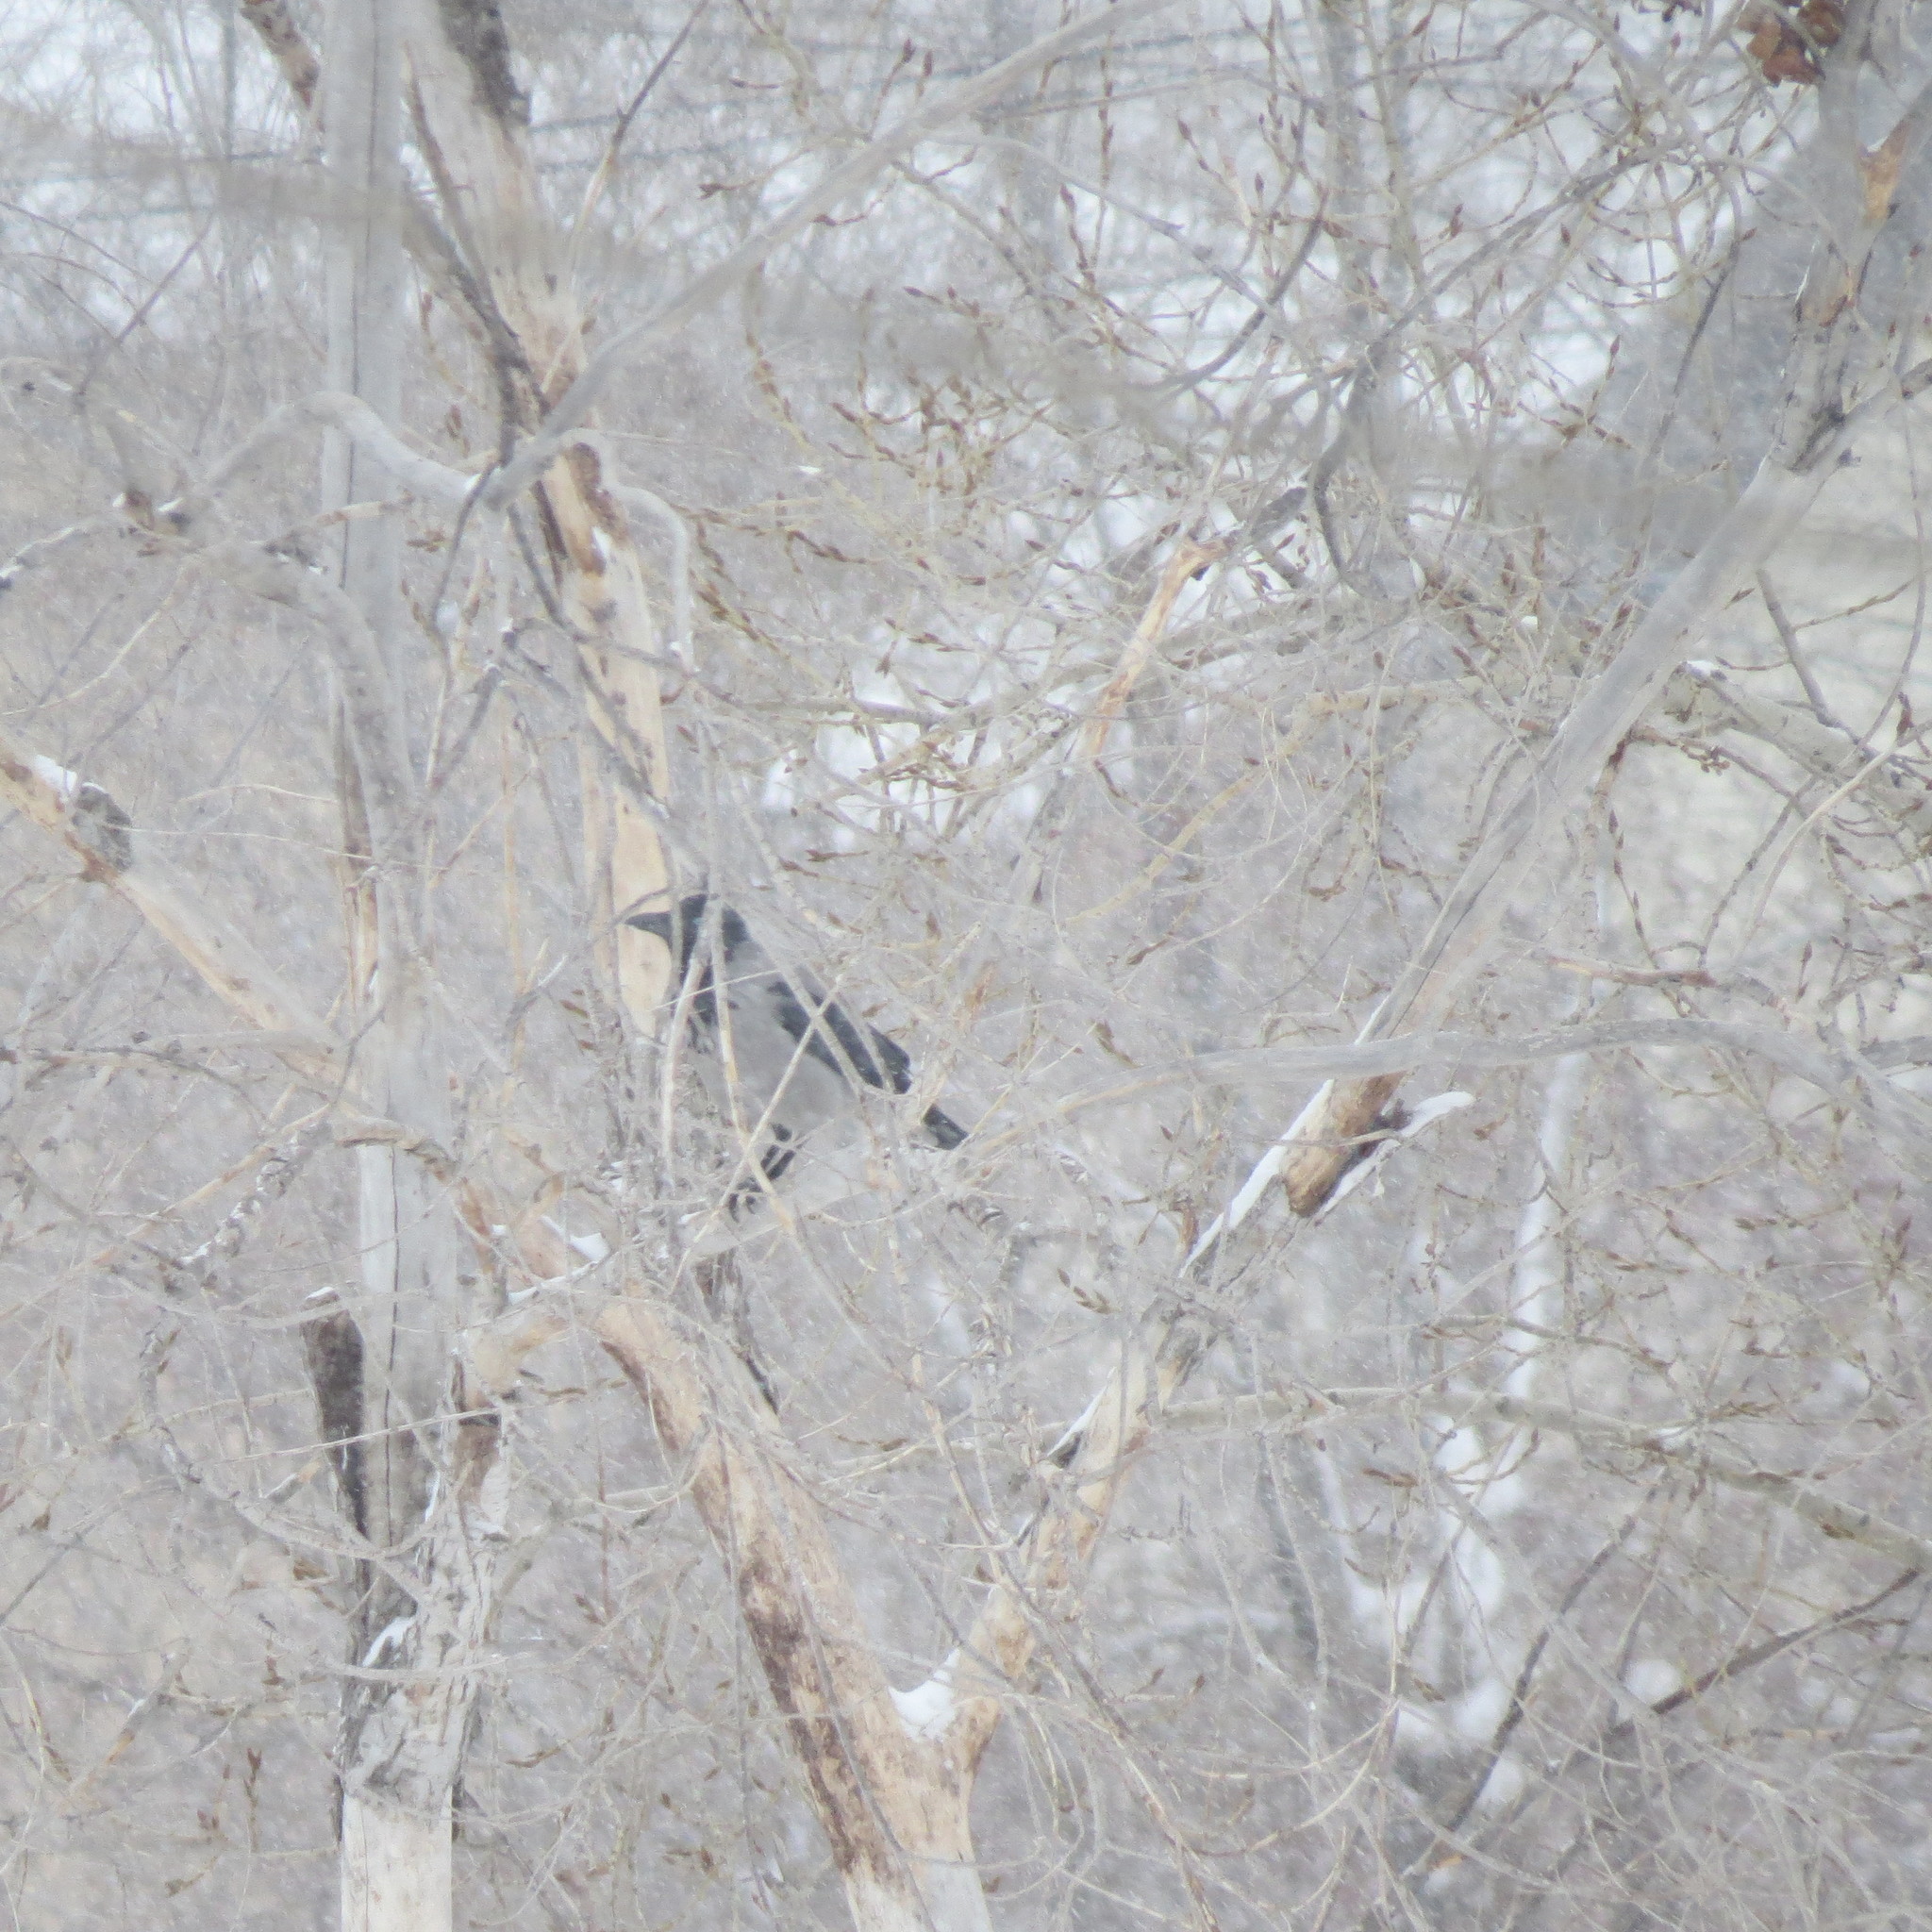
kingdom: Animalia
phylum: Chordata
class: Aves
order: Passeriformes
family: Corvidae
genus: Corvus
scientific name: Corvus cornix
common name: Hooded crow
